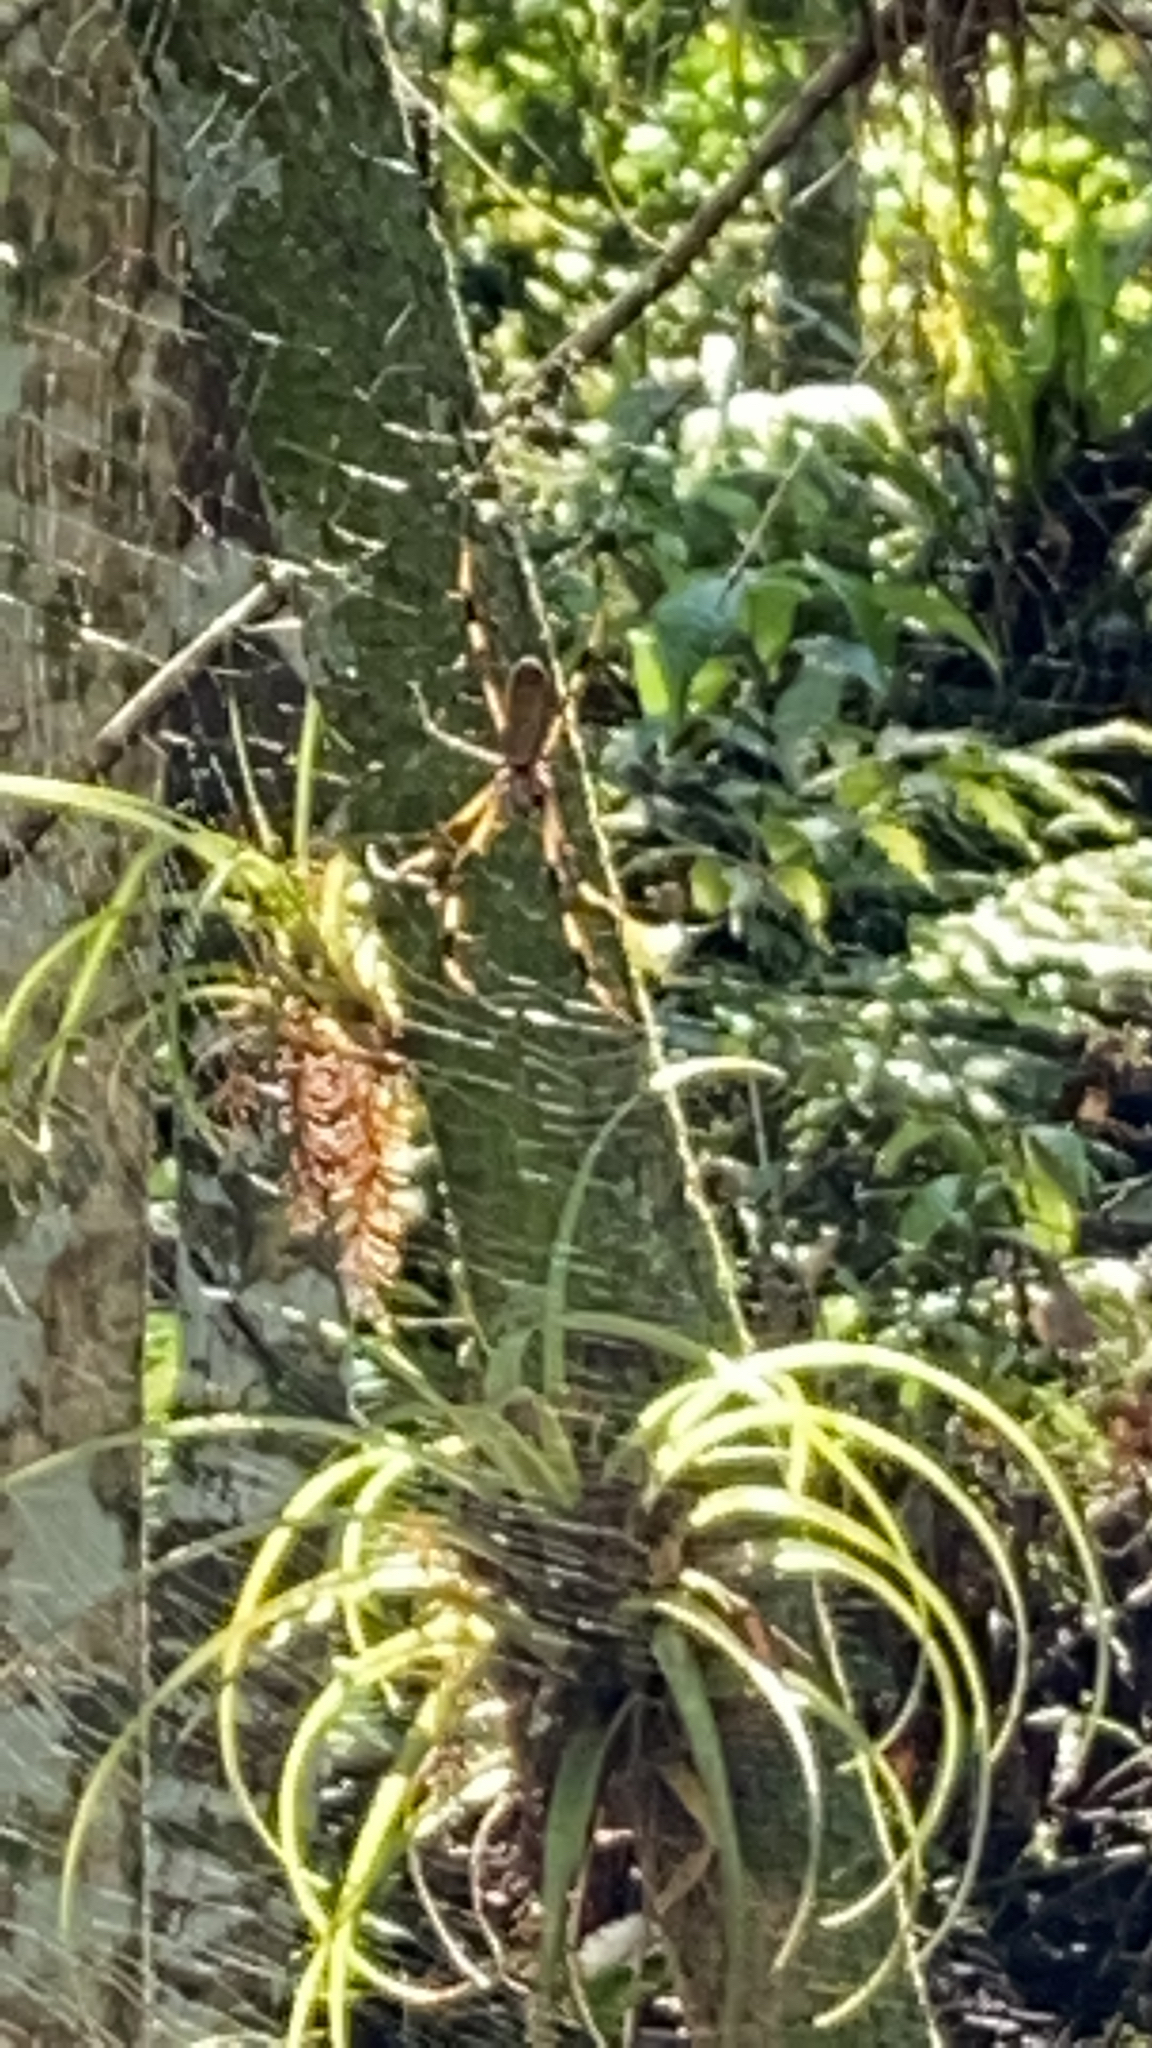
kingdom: Animalia
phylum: Arthropoda
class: Arachnida
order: Araneae
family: Araneidae
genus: Trichonephila
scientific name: Trichonephila clavipes
